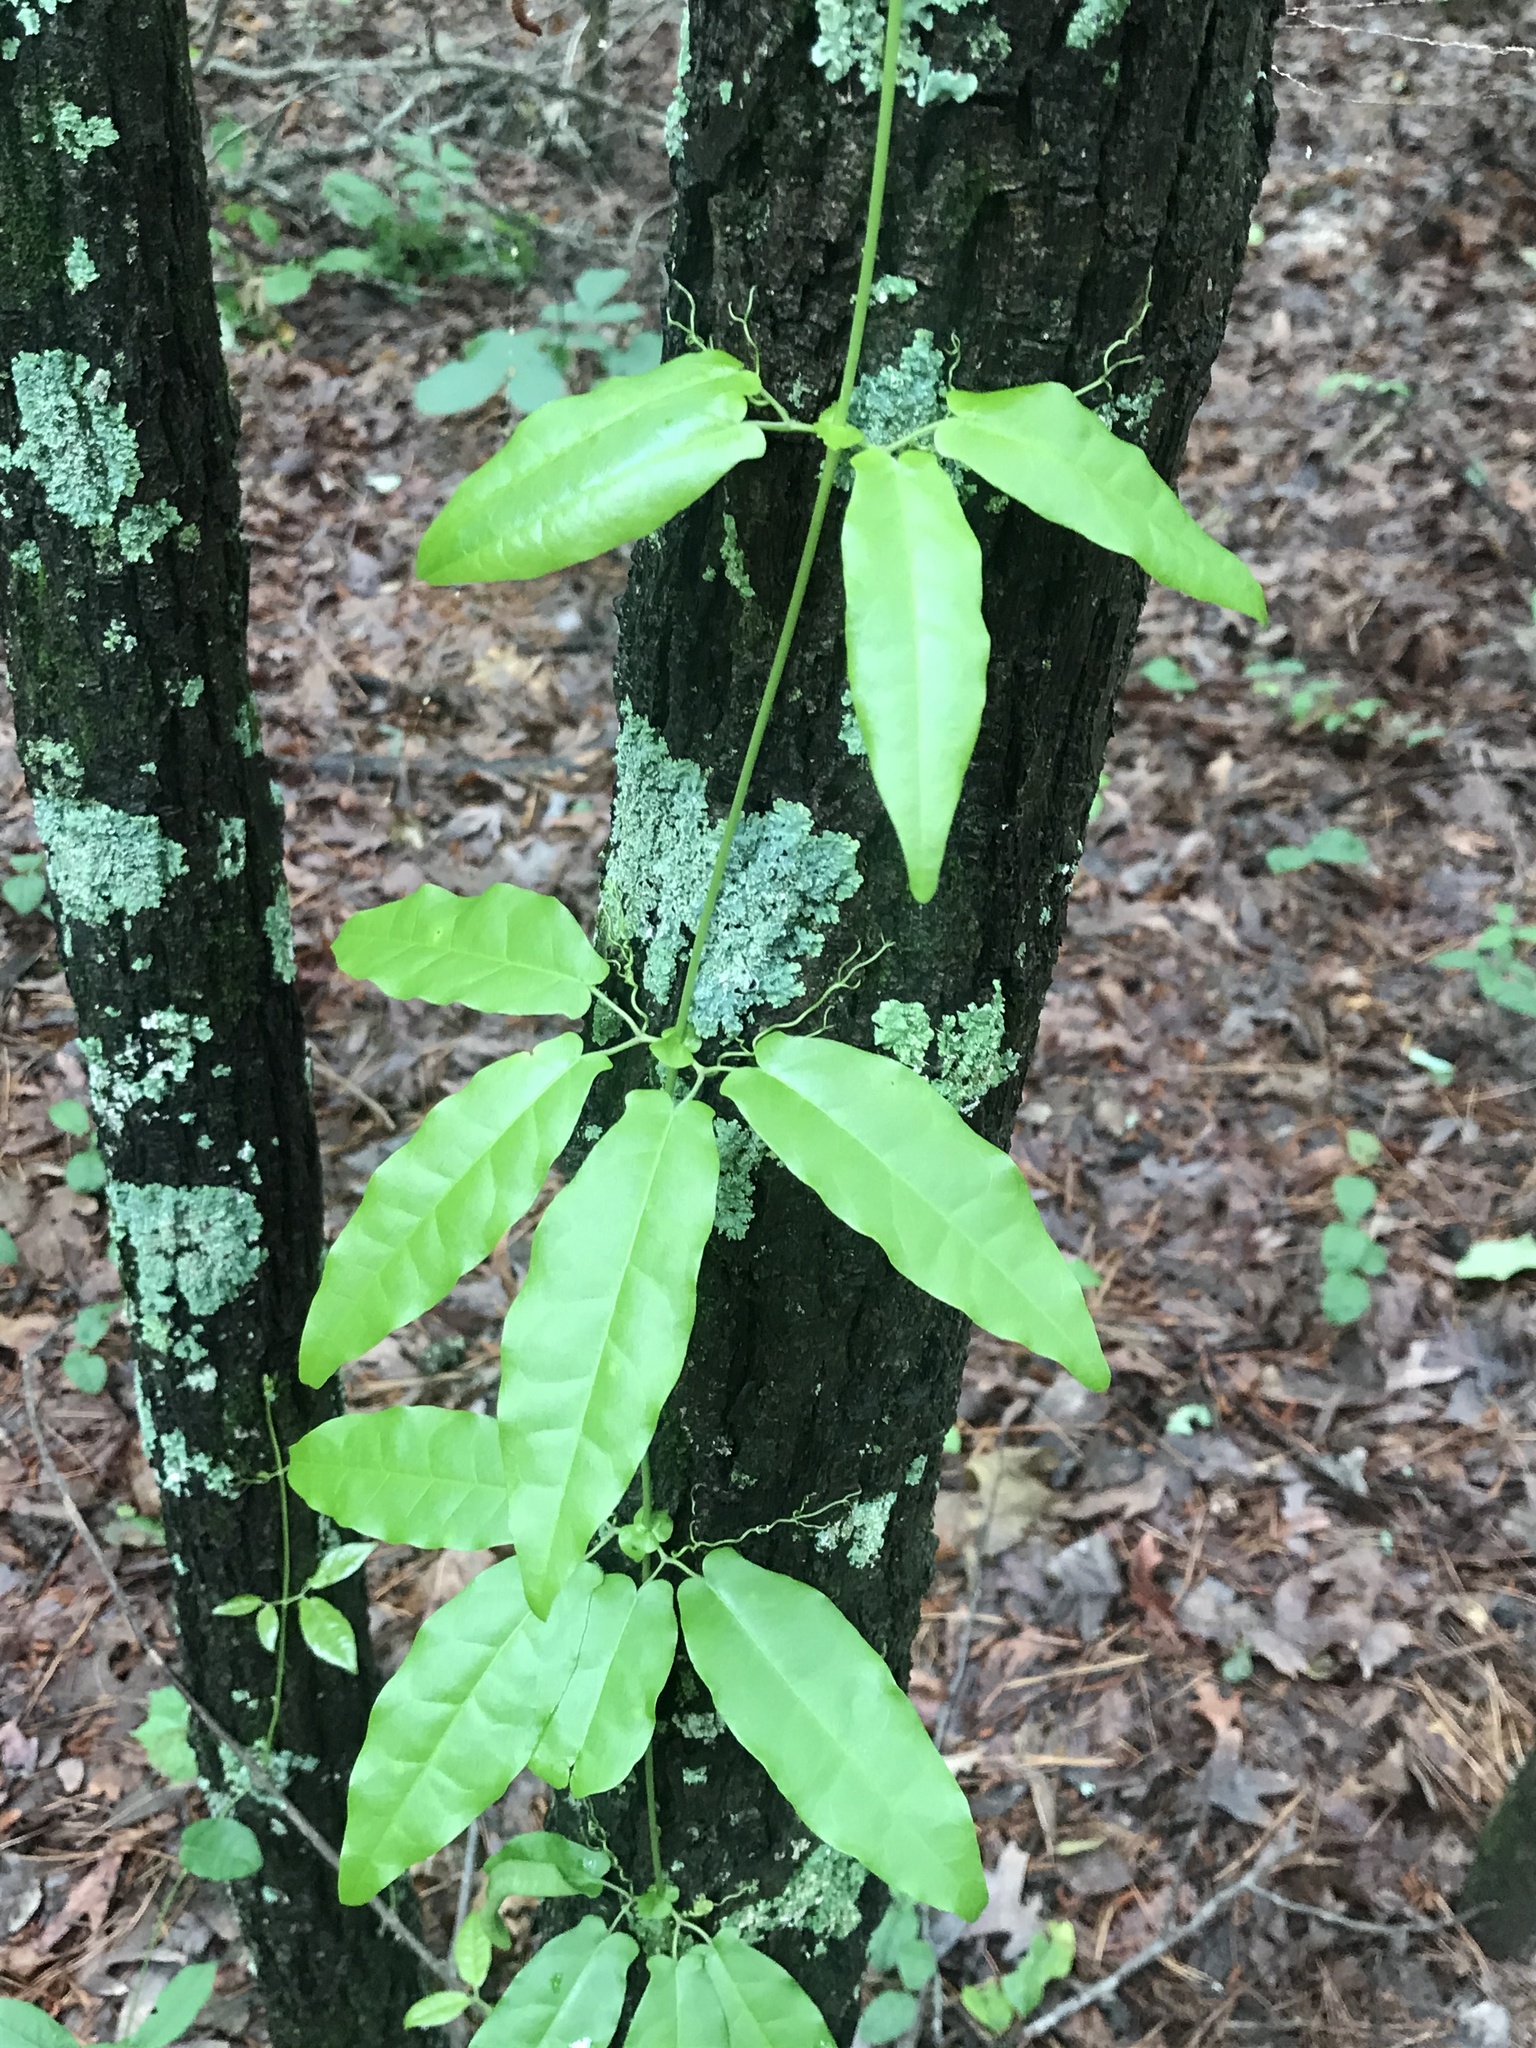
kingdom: Plantae
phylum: Tracheophyta
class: Magnoliopsida
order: Lamiales
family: Bignoniaceae
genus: Bignonia
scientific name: Bignonia capreolata
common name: Crossvine
